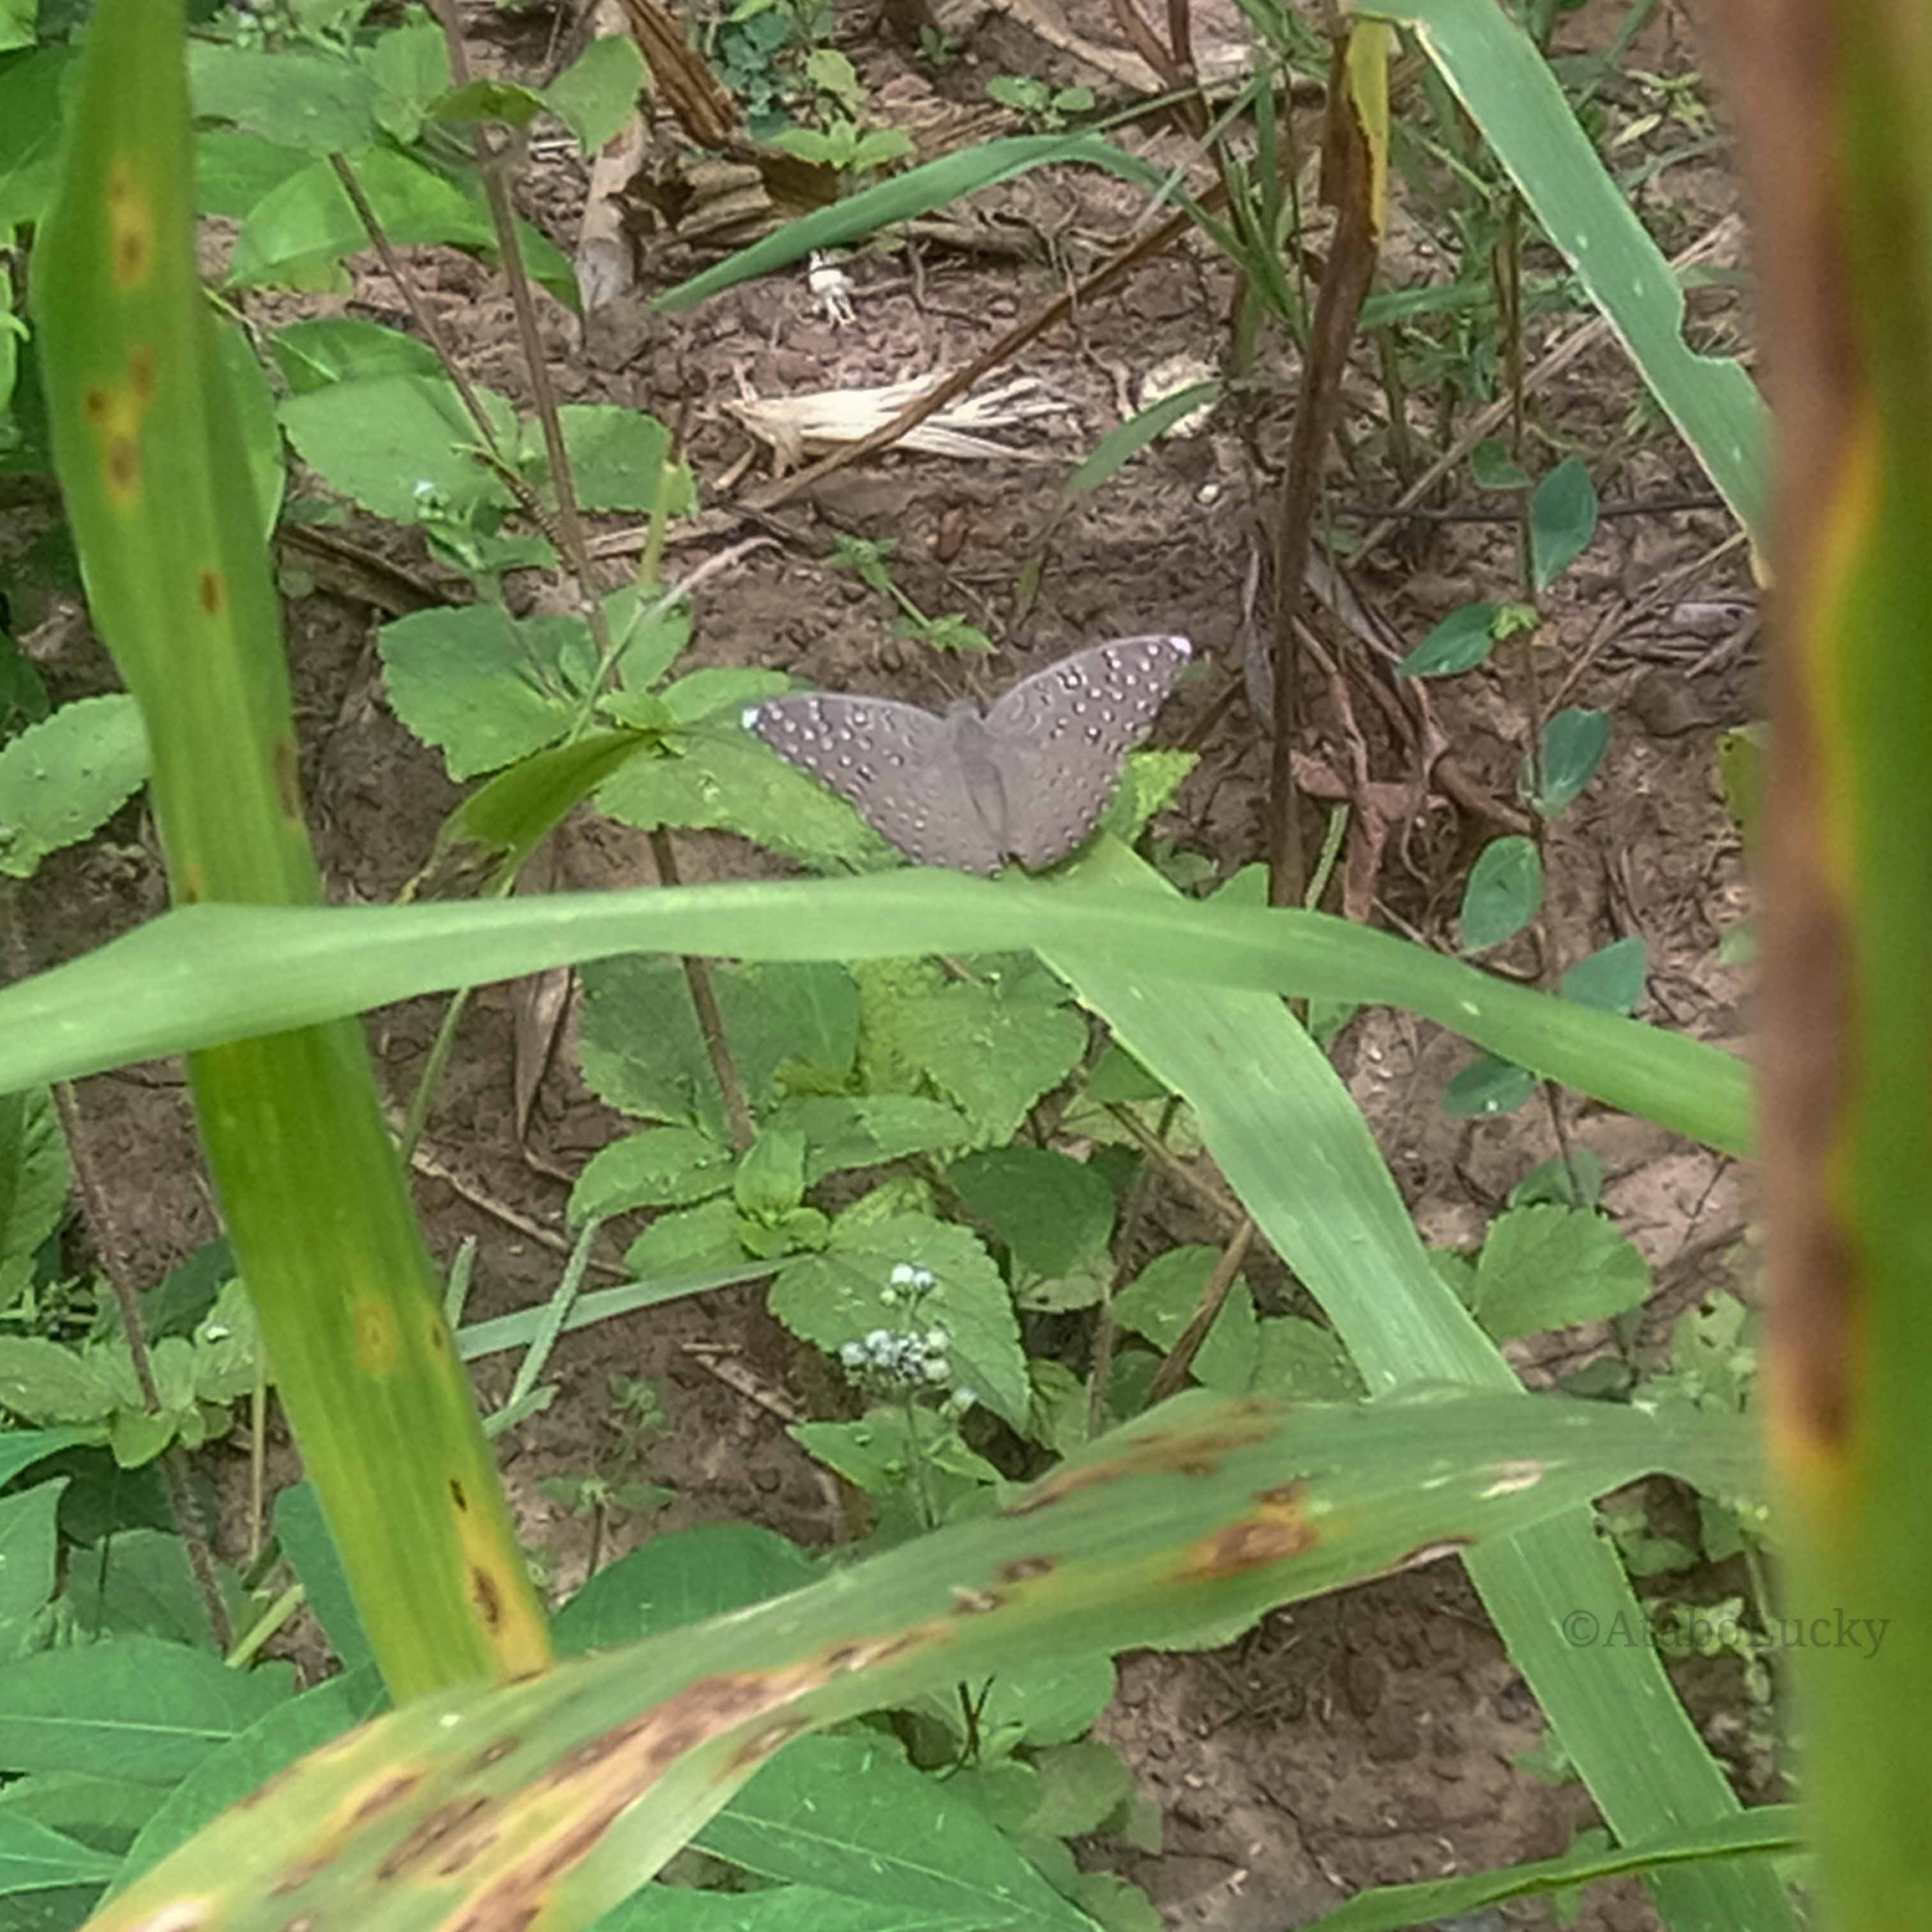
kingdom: Animalia
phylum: Arthropoda
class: Insecta
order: Lepidoptera
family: Nymphalidae
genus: Hamanumida
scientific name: Hamanumida daedalus
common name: Guinea-fowl butterfly
